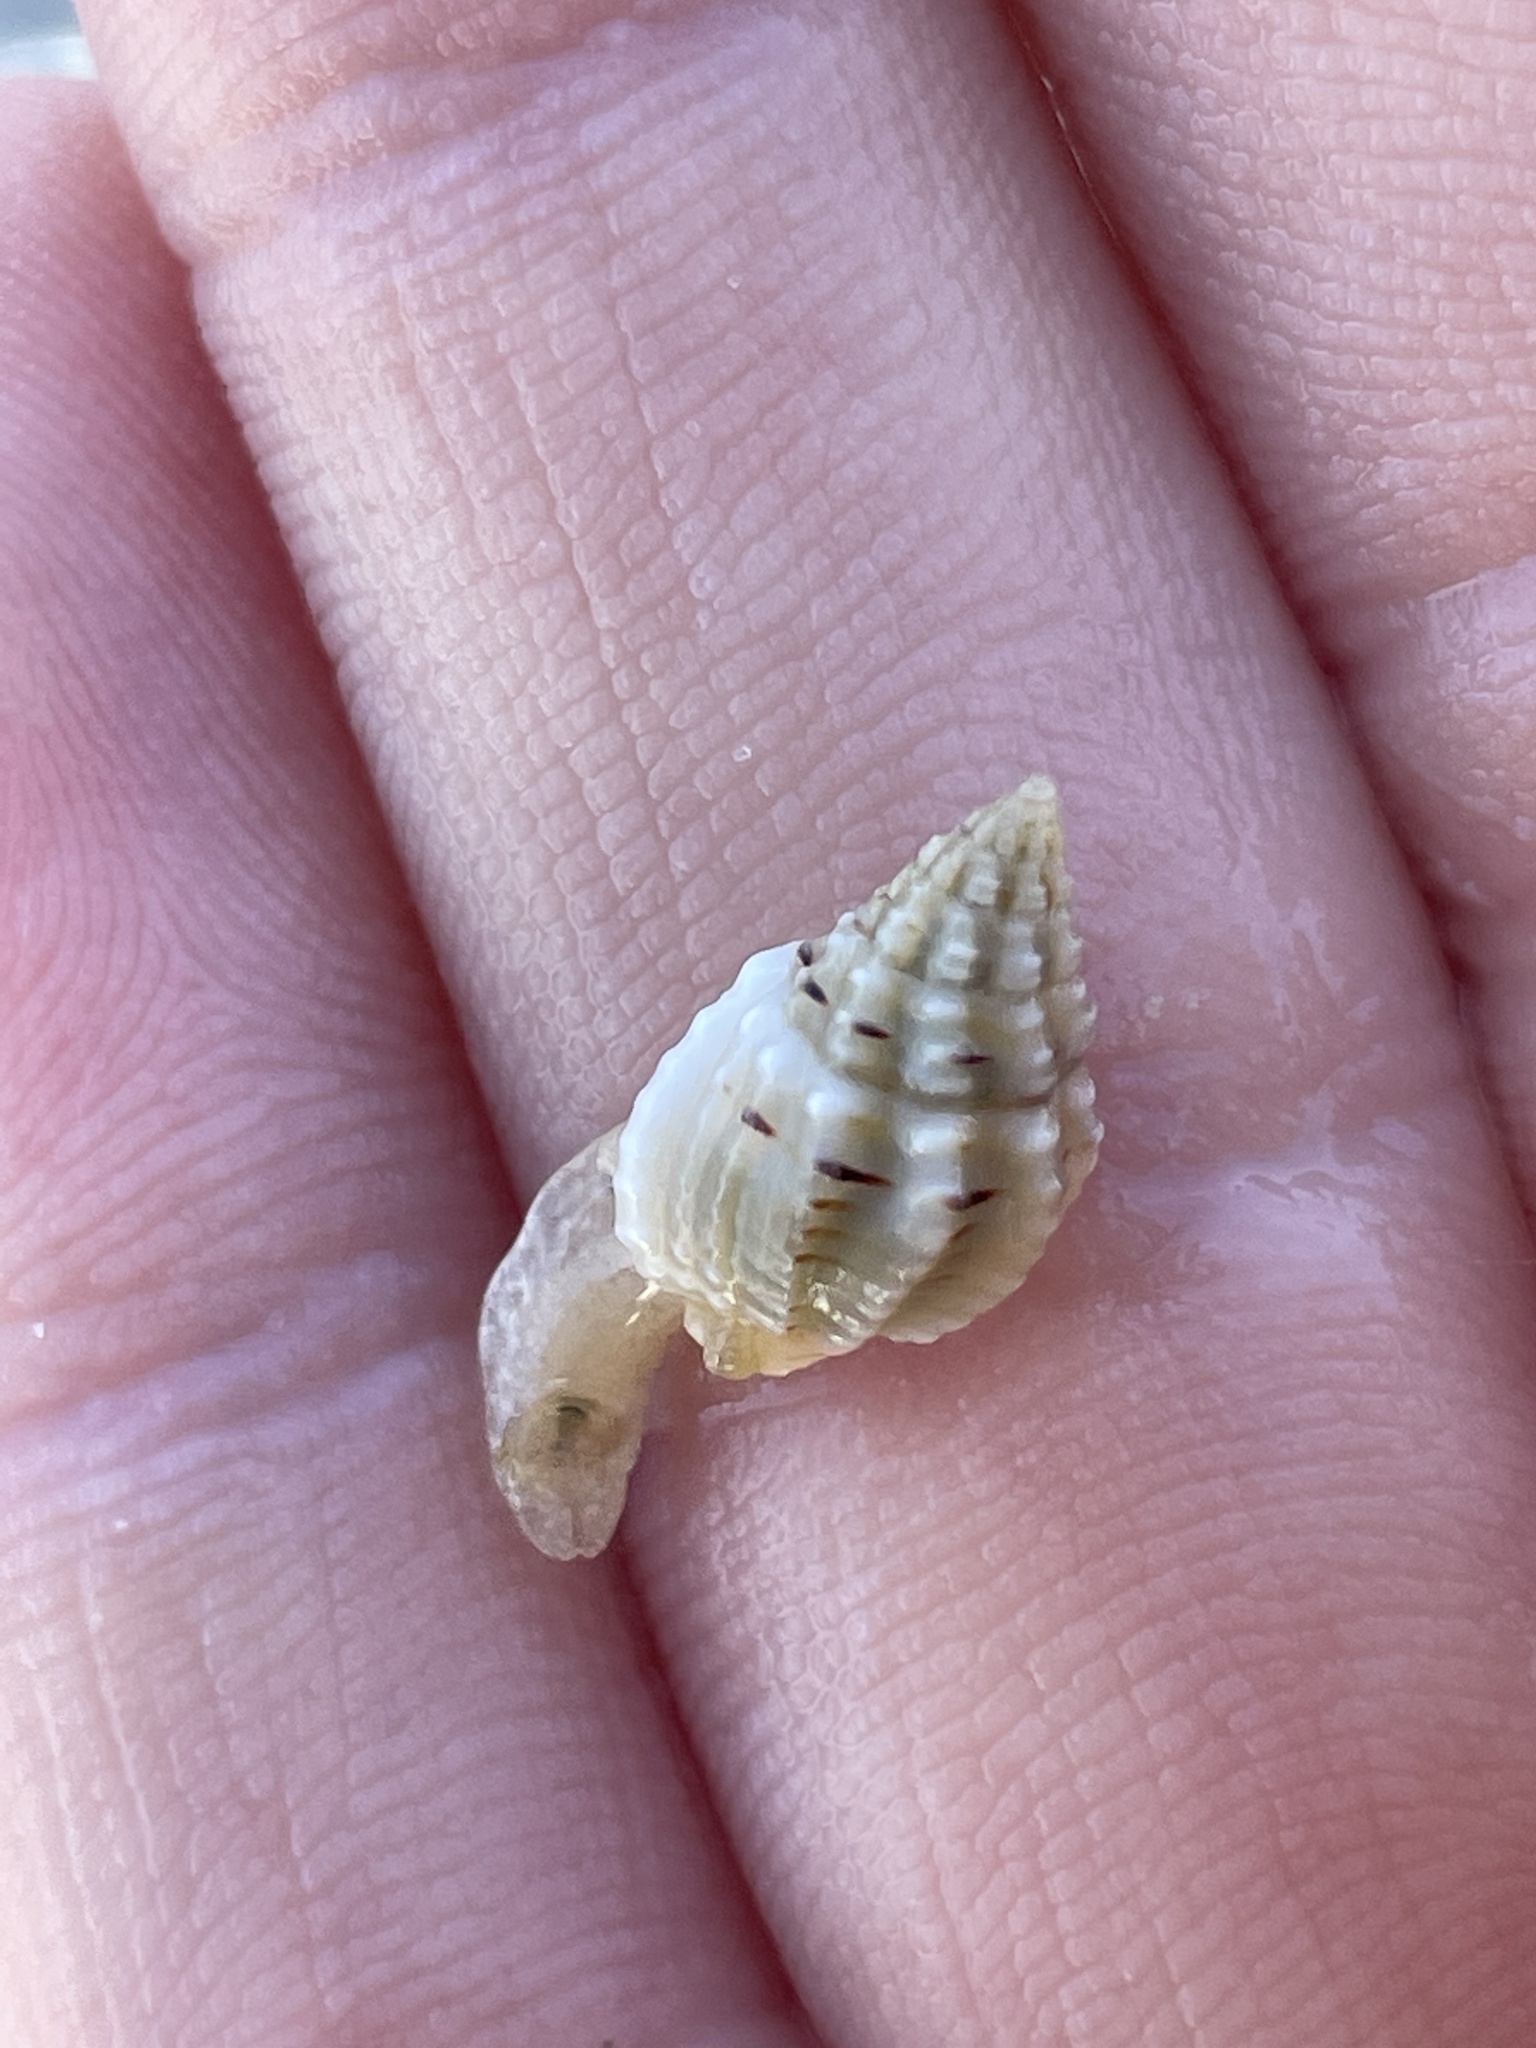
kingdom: Animalia
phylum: Mollusca
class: Gastropoda
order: Neogastropoda
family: Nassariidae
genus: Phrontis
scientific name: Phrontis vibex
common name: Bruised nassa
